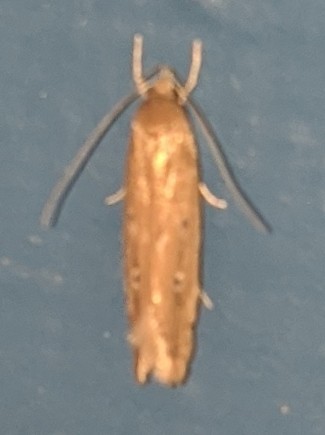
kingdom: Animalia
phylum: Arthropoda
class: Insecta
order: Lepidoptera
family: Cosmopterigidae
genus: Limnaecia
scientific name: Limnaecia phragmitella
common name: Bulrush cosmet
